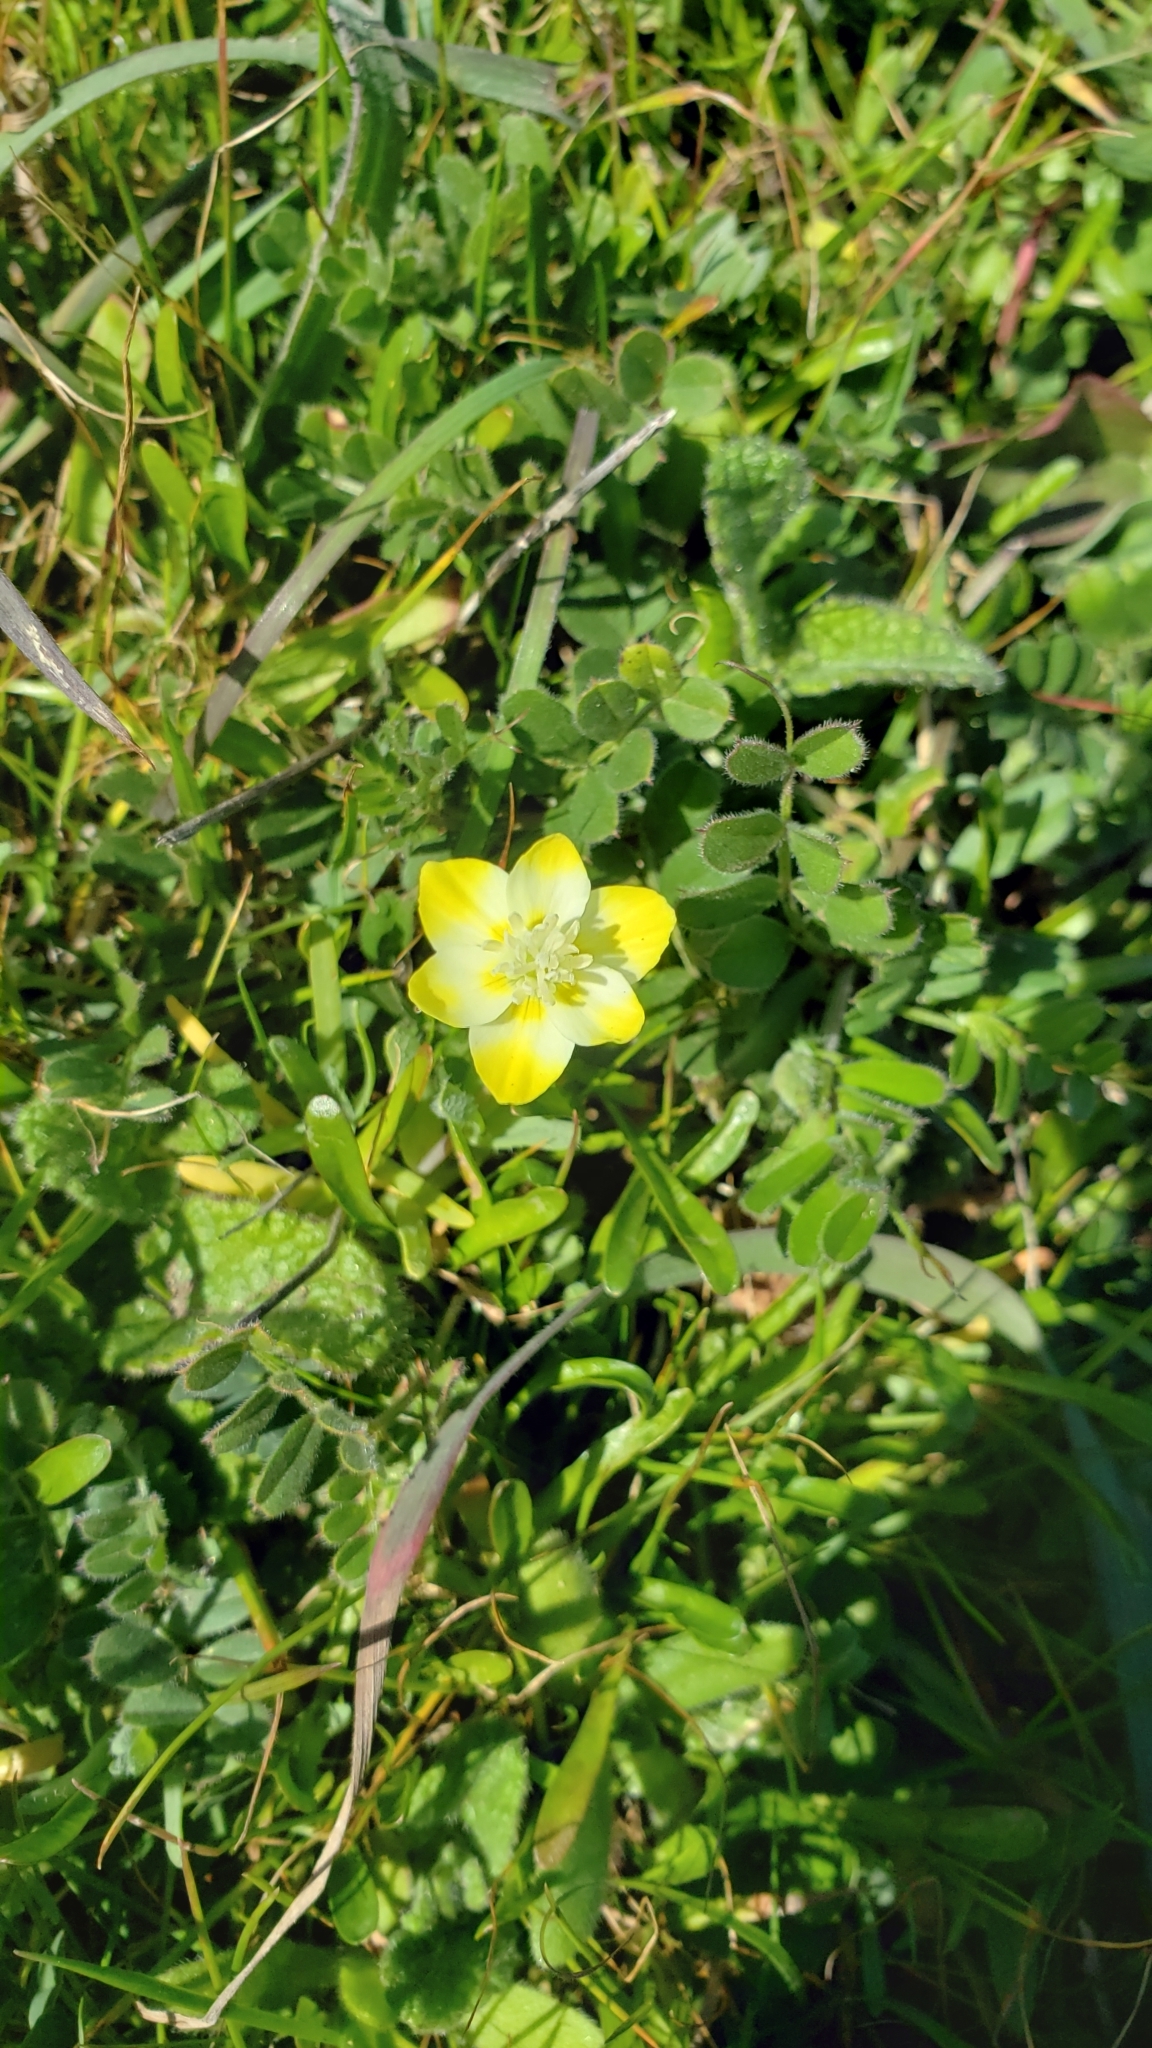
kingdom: Plantae
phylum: Tracheophyta
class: Magnoliopsida
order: Ranunculales
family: Papaveraceae
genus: Platystemon
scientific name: Platystemon californicus
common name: Cream-cups
